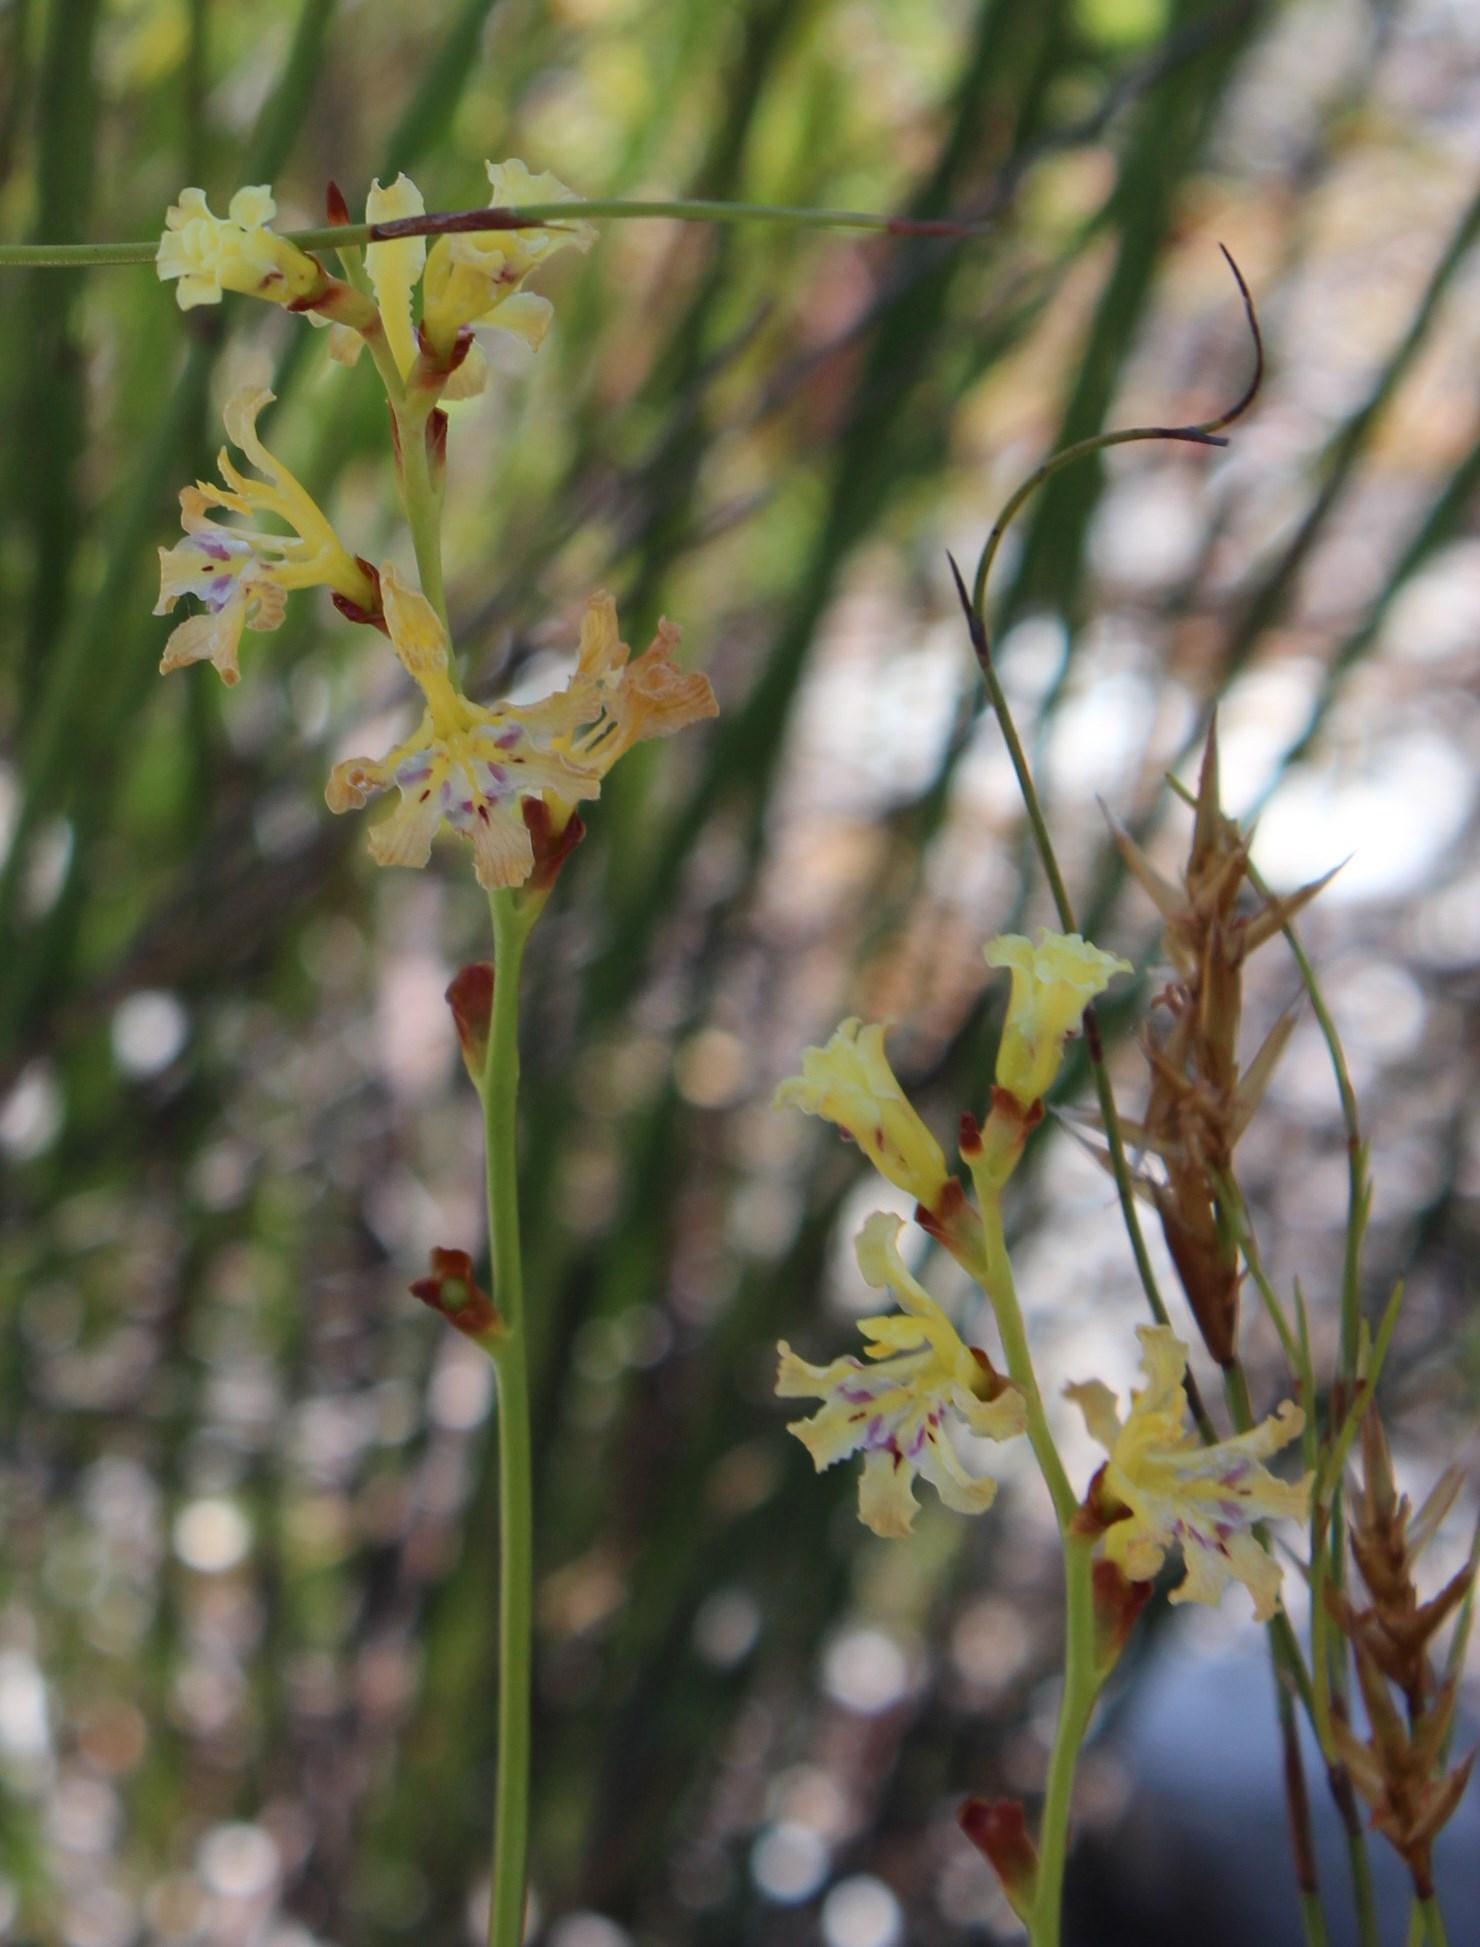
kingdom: Plantae
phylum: Tracheophyta
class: Liliopsida
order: Asparagales
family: Iridaceae
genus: Tritoniopsis
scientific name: Tritoniopsis parviflora
